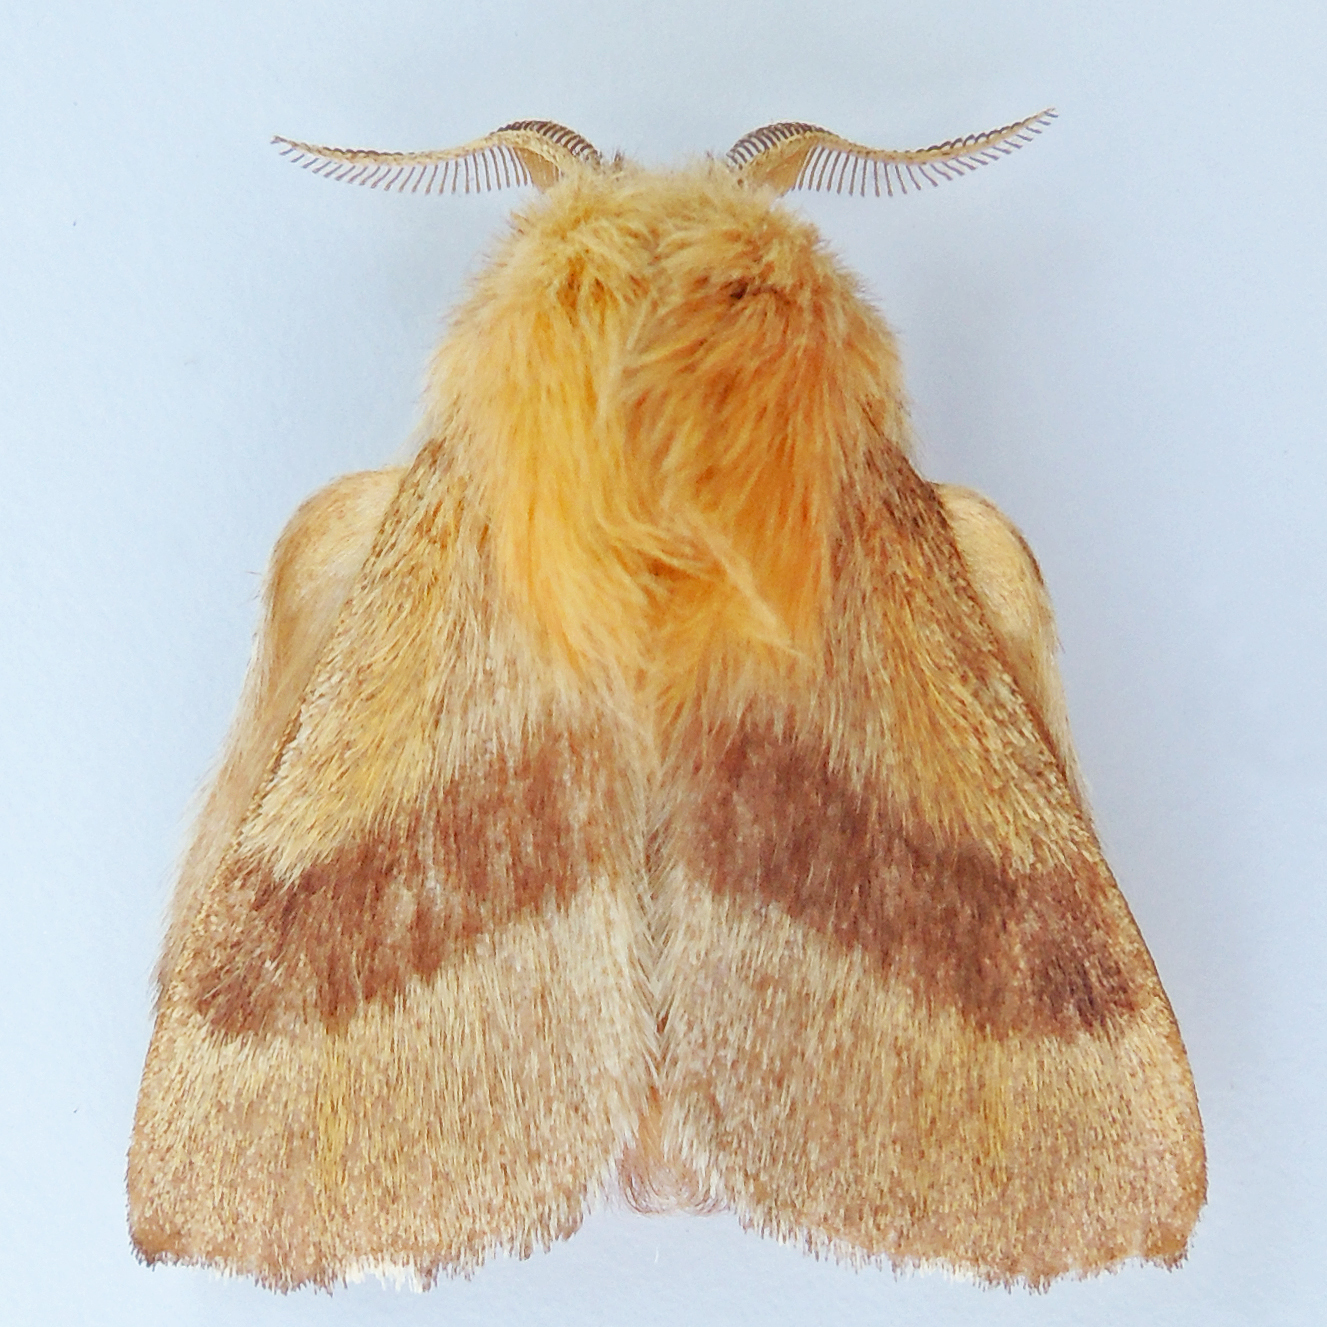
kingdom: Animalia
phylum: Arthropoda
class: Insecta
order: Lepidoptera
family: Lasiocampidae
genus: Malacosoma
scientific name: Malacosoma disstria
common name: Forest tent caterpillar
